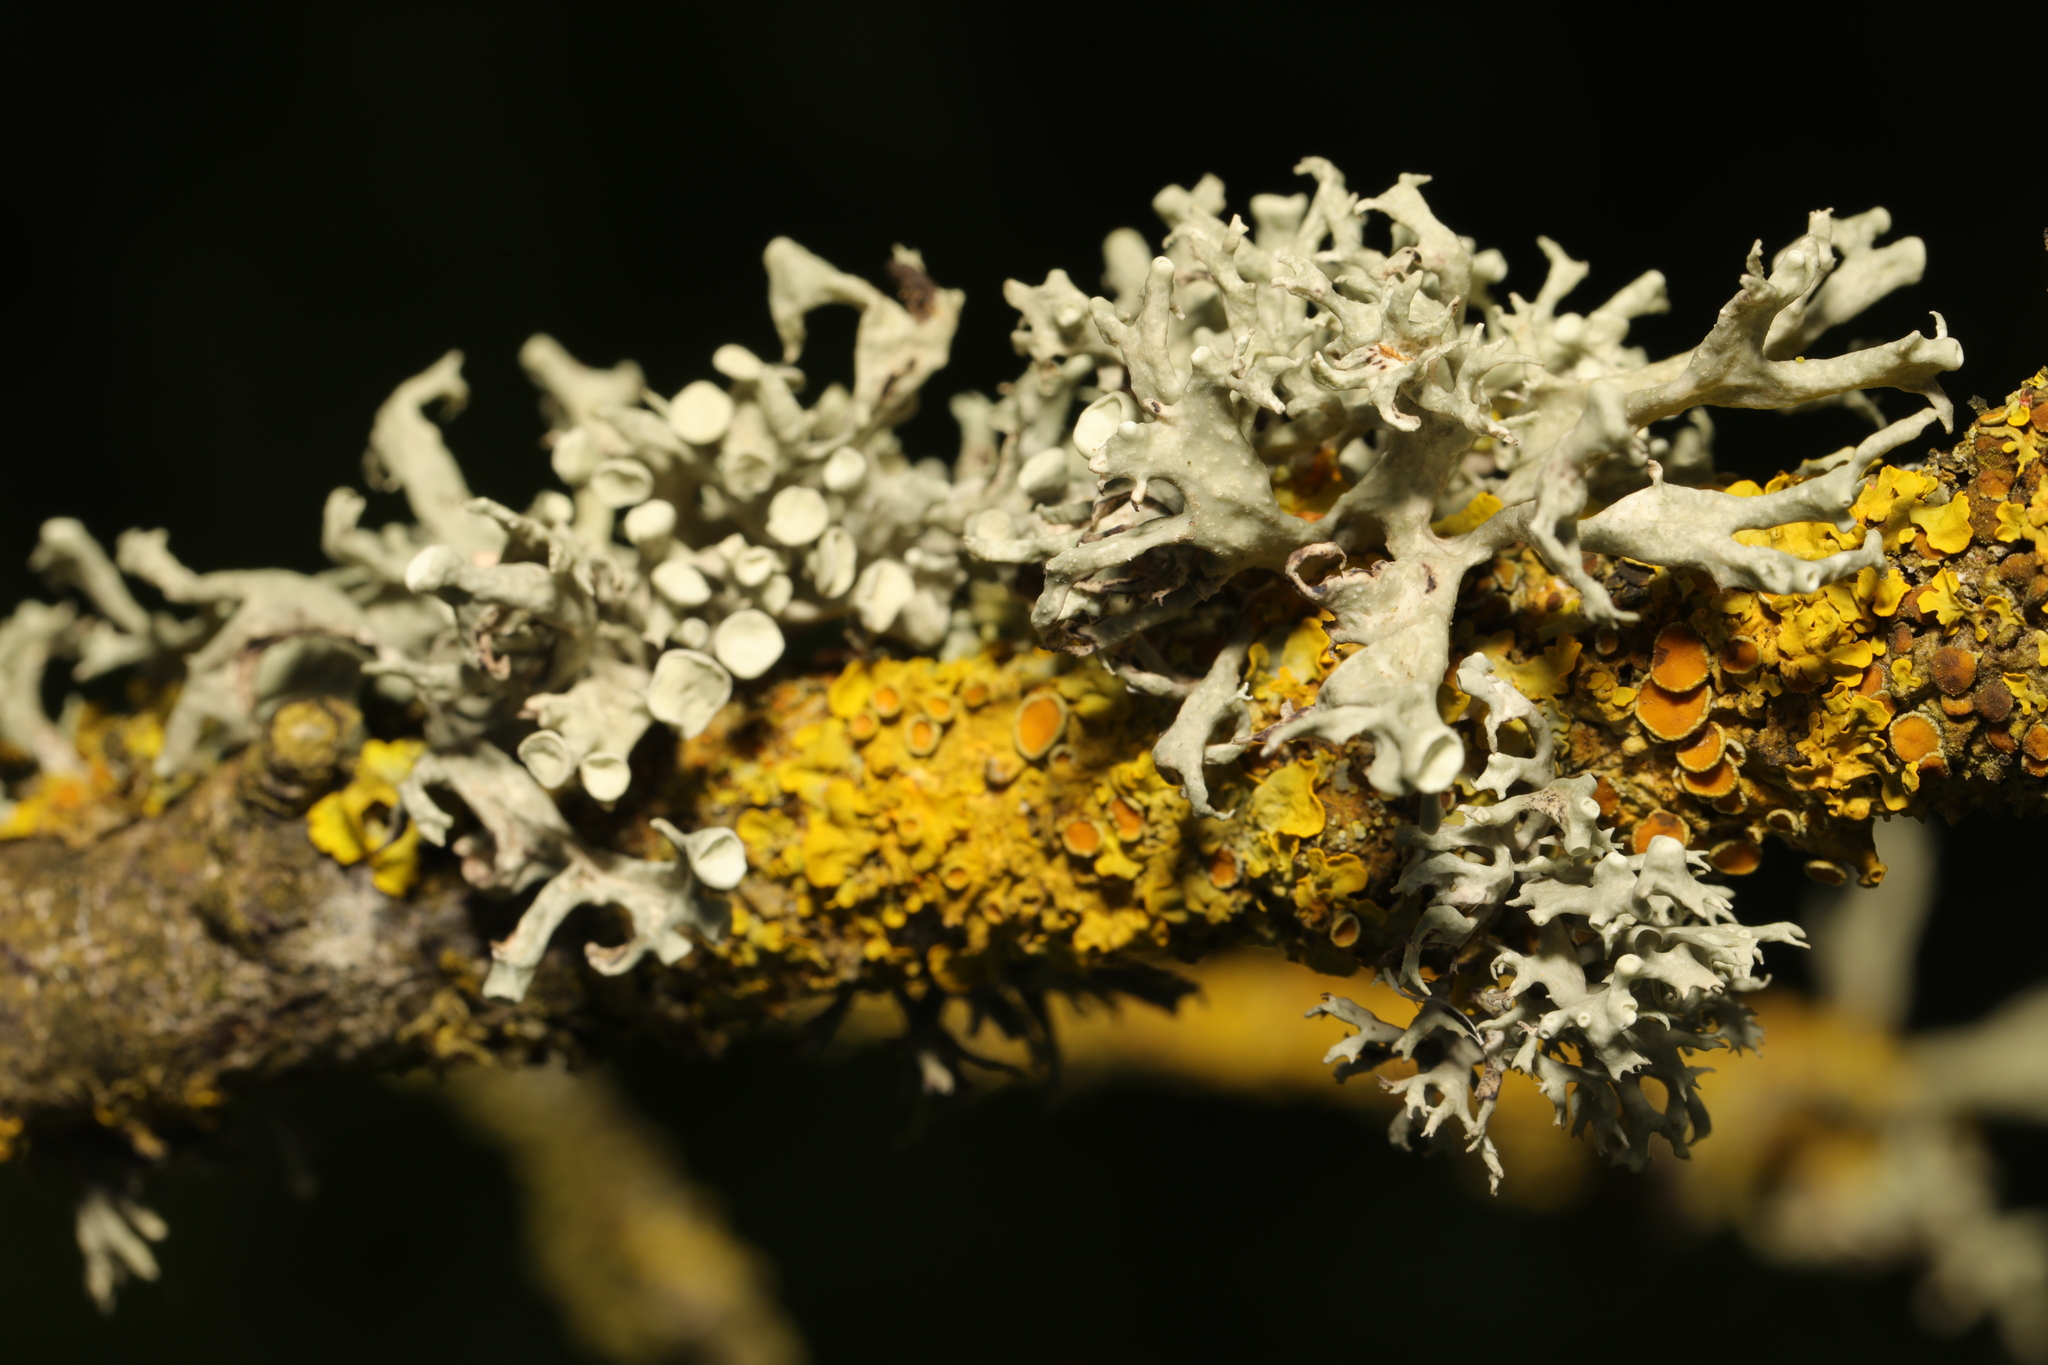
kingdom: Fungi
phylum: Ascomycota
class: Lecanoromycetes
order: Lecanorales
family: Ramalinaceae
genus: Ramalina
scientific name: Ramalina fastigiata
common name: Dotted ribbon lichen
